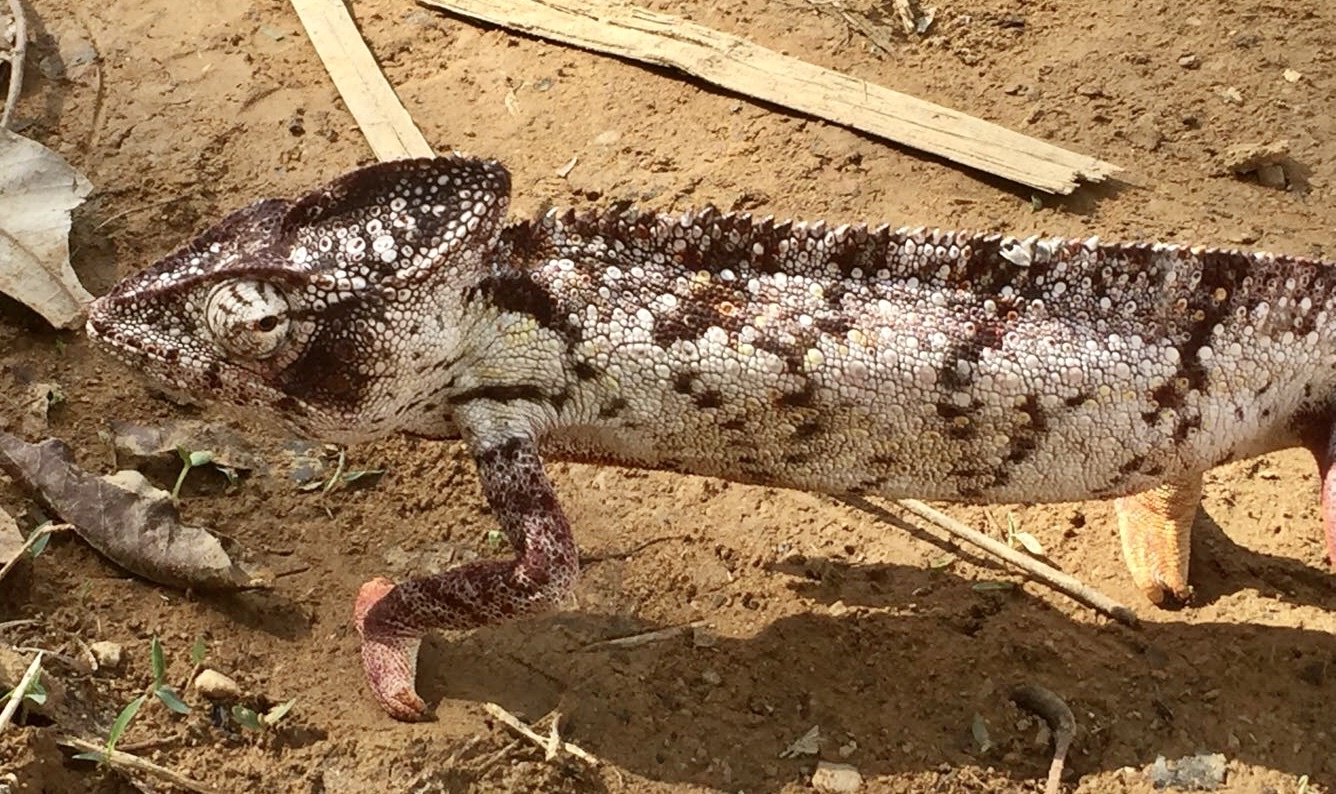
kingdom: Animalia
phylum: Chordata
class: Squamata
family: Chamaeleonidae
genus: Furcifer
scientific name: Furcifer oustaleti
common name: Oustalet's chameleon
